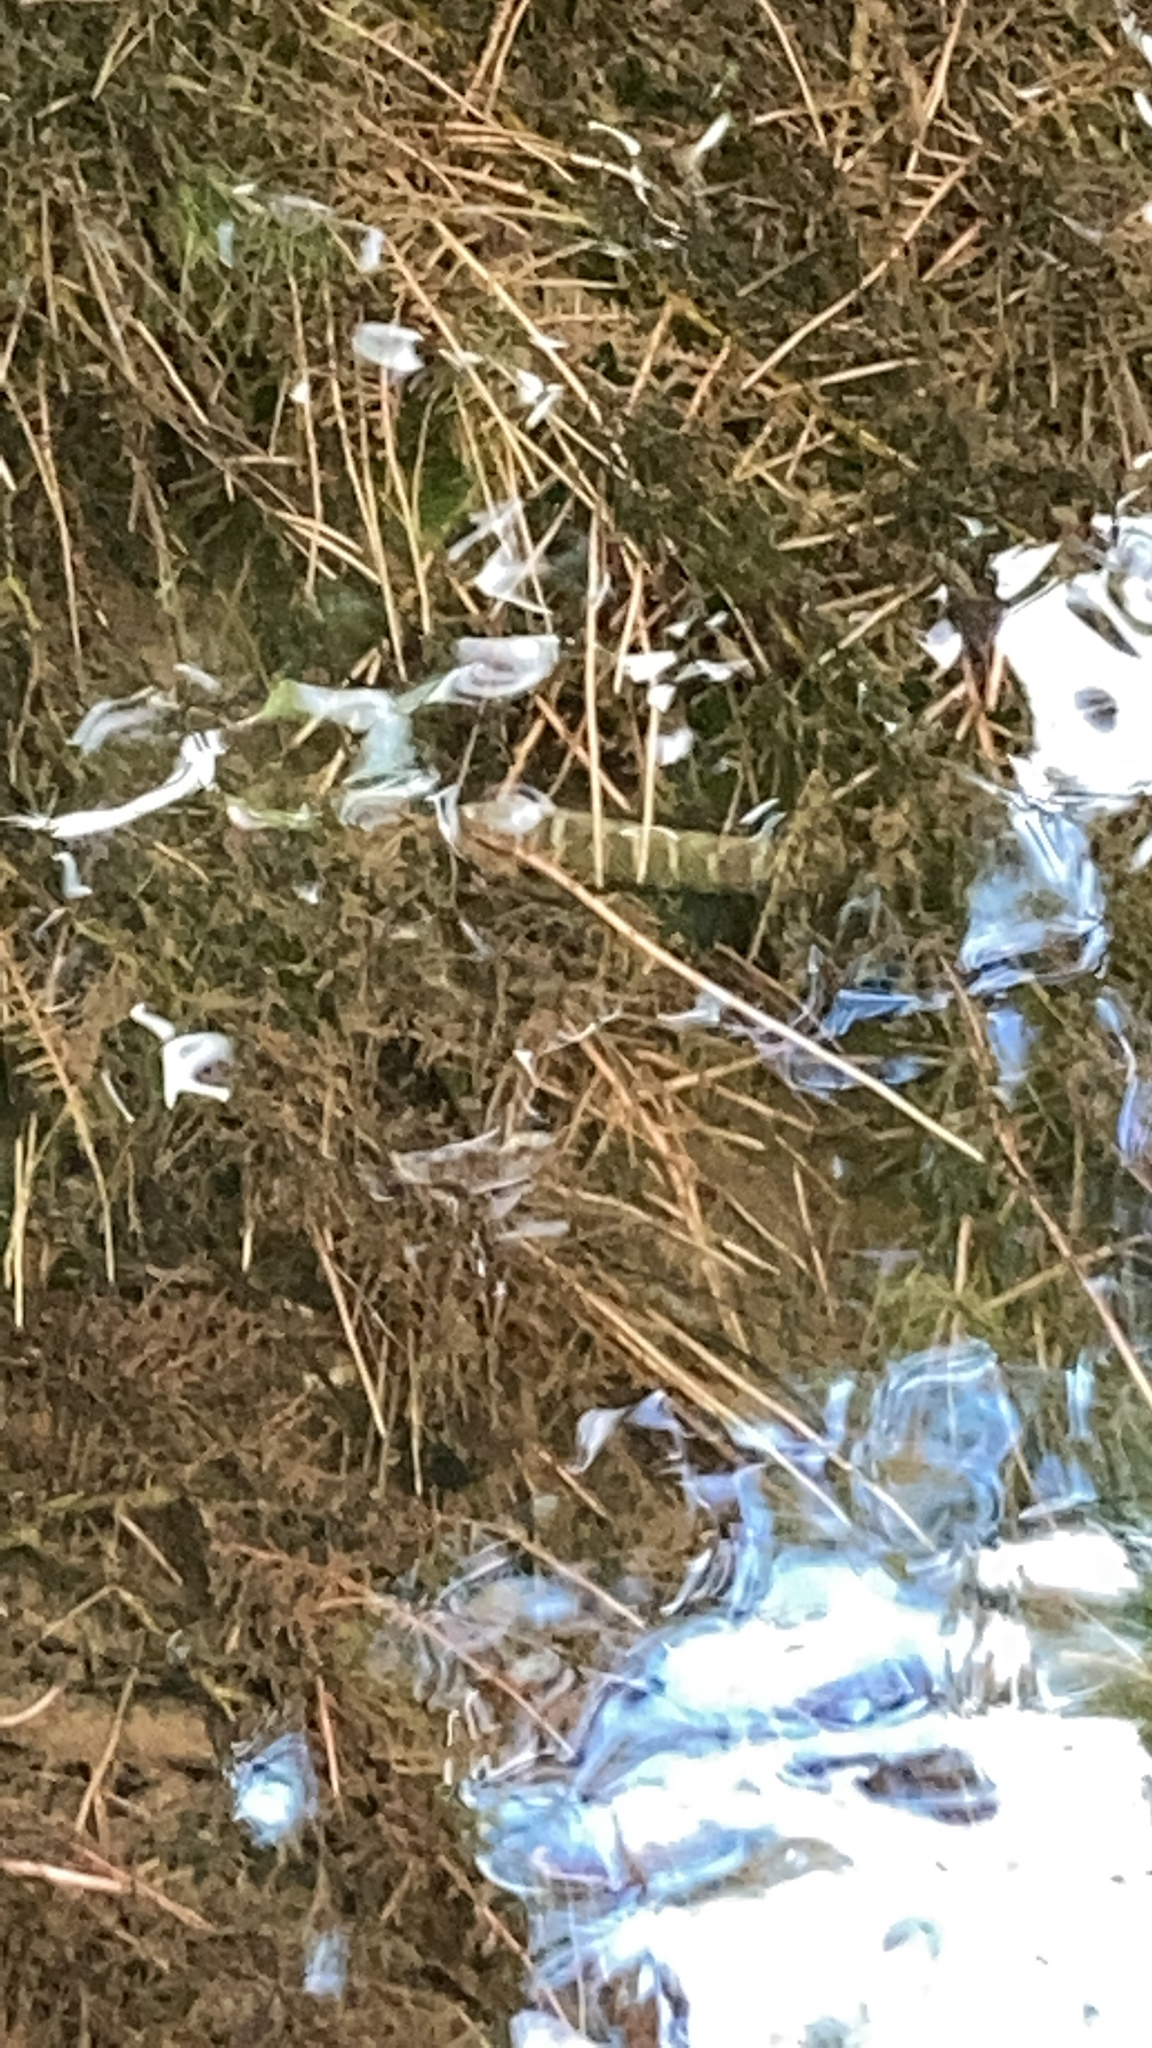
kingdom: Animalia
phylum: Chordata
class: Squamata
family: Colubridae
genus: Nerodia
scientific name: Nerodia sipedon
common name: Northern water snake
